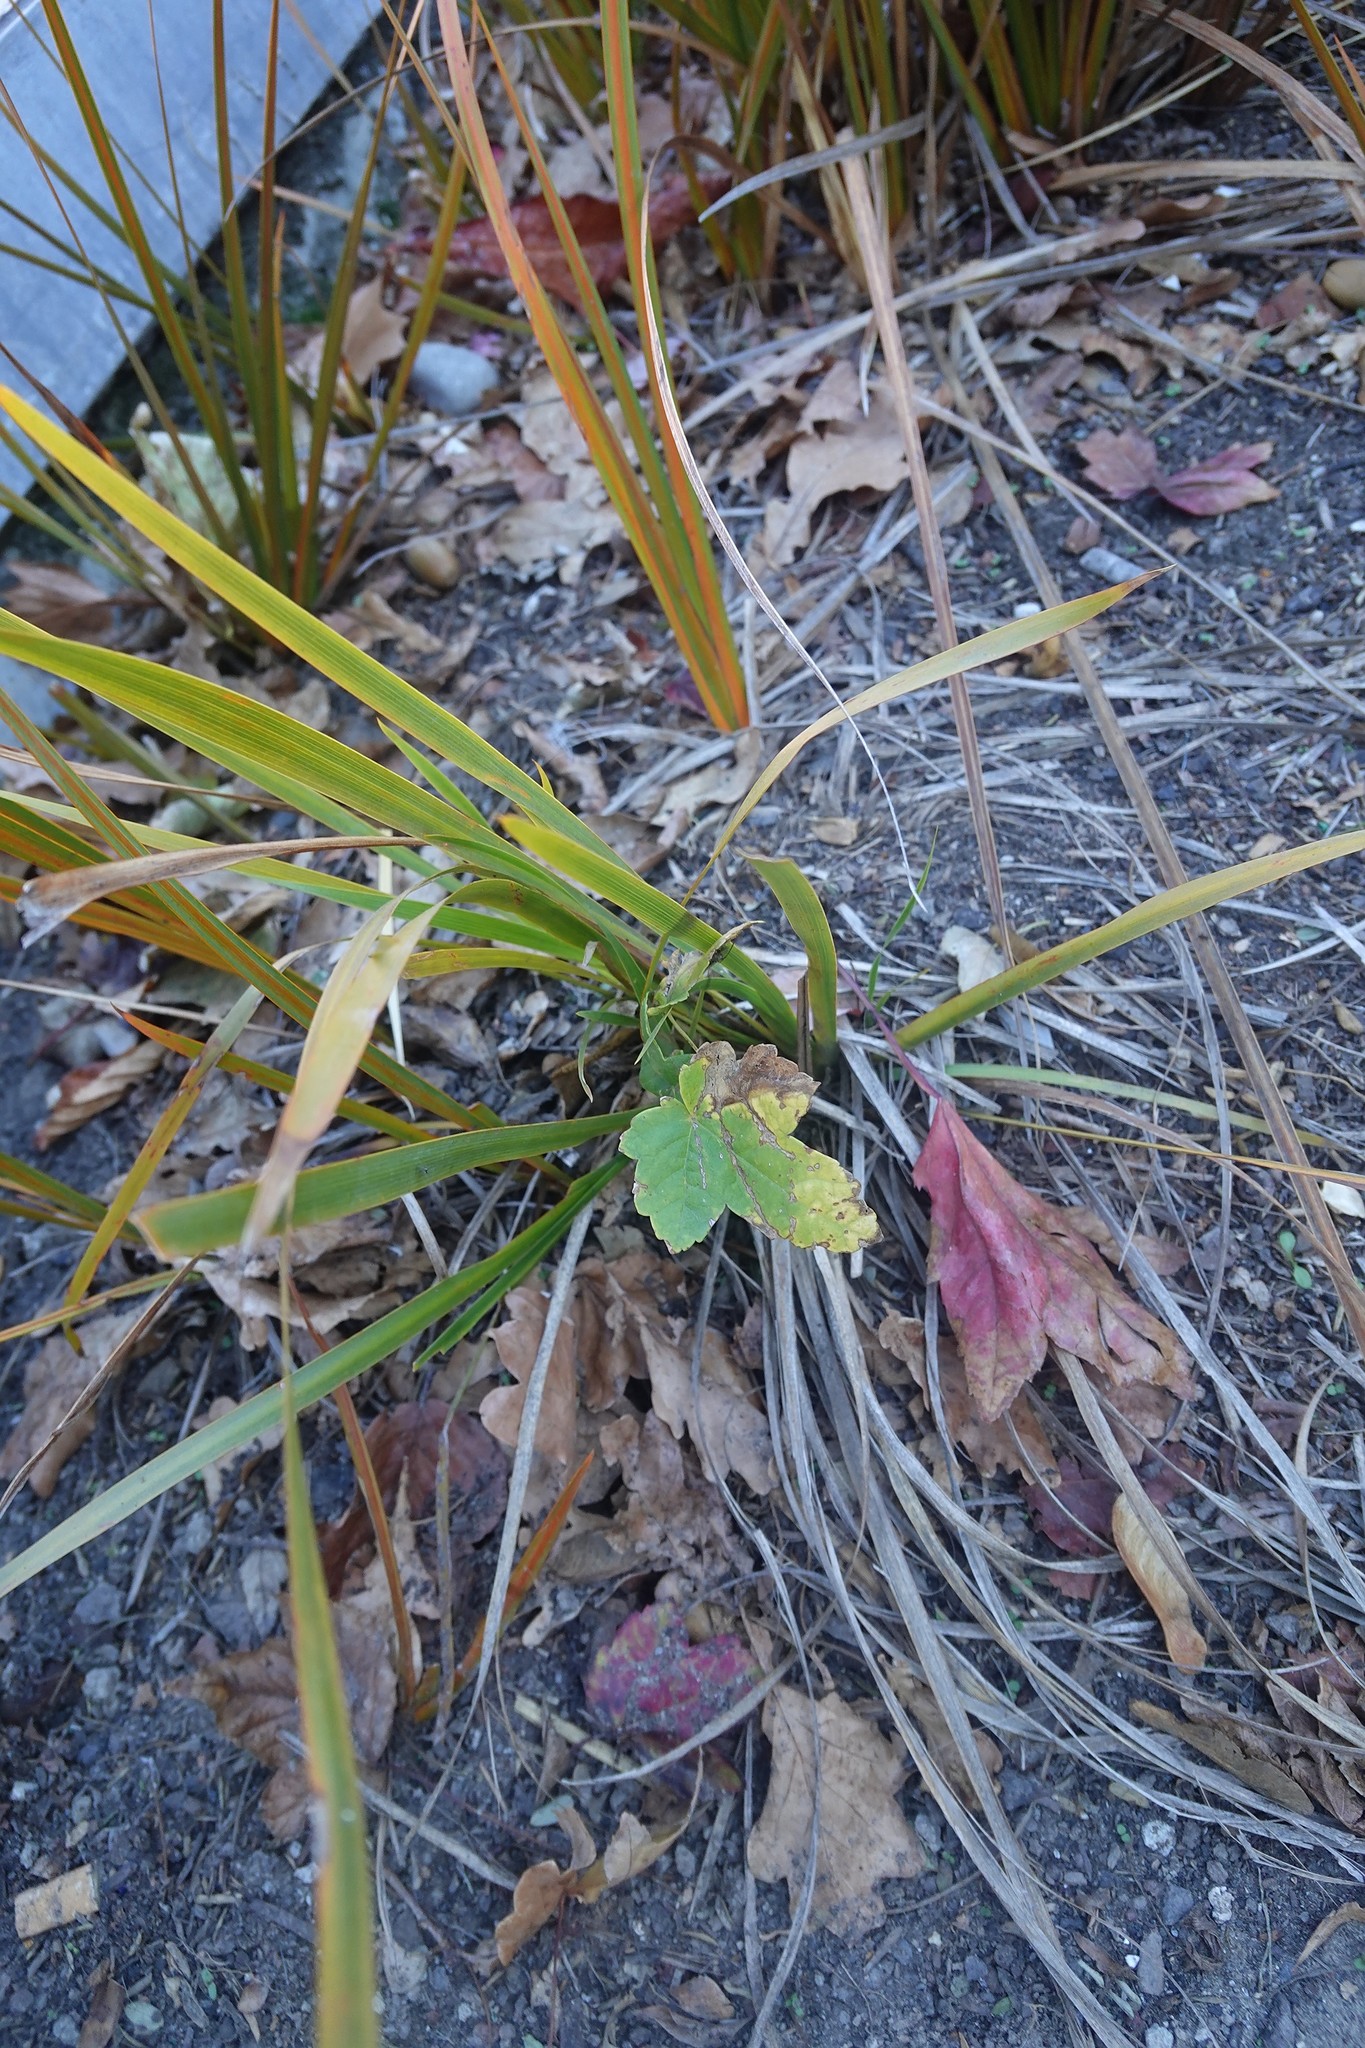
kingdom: Plantae
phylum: Tracheophyta
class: Magnoliopsida
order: Sapindales
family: Sapindaceae
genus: Acer
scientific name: Acer pseudoplatanus
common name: Sycamore
